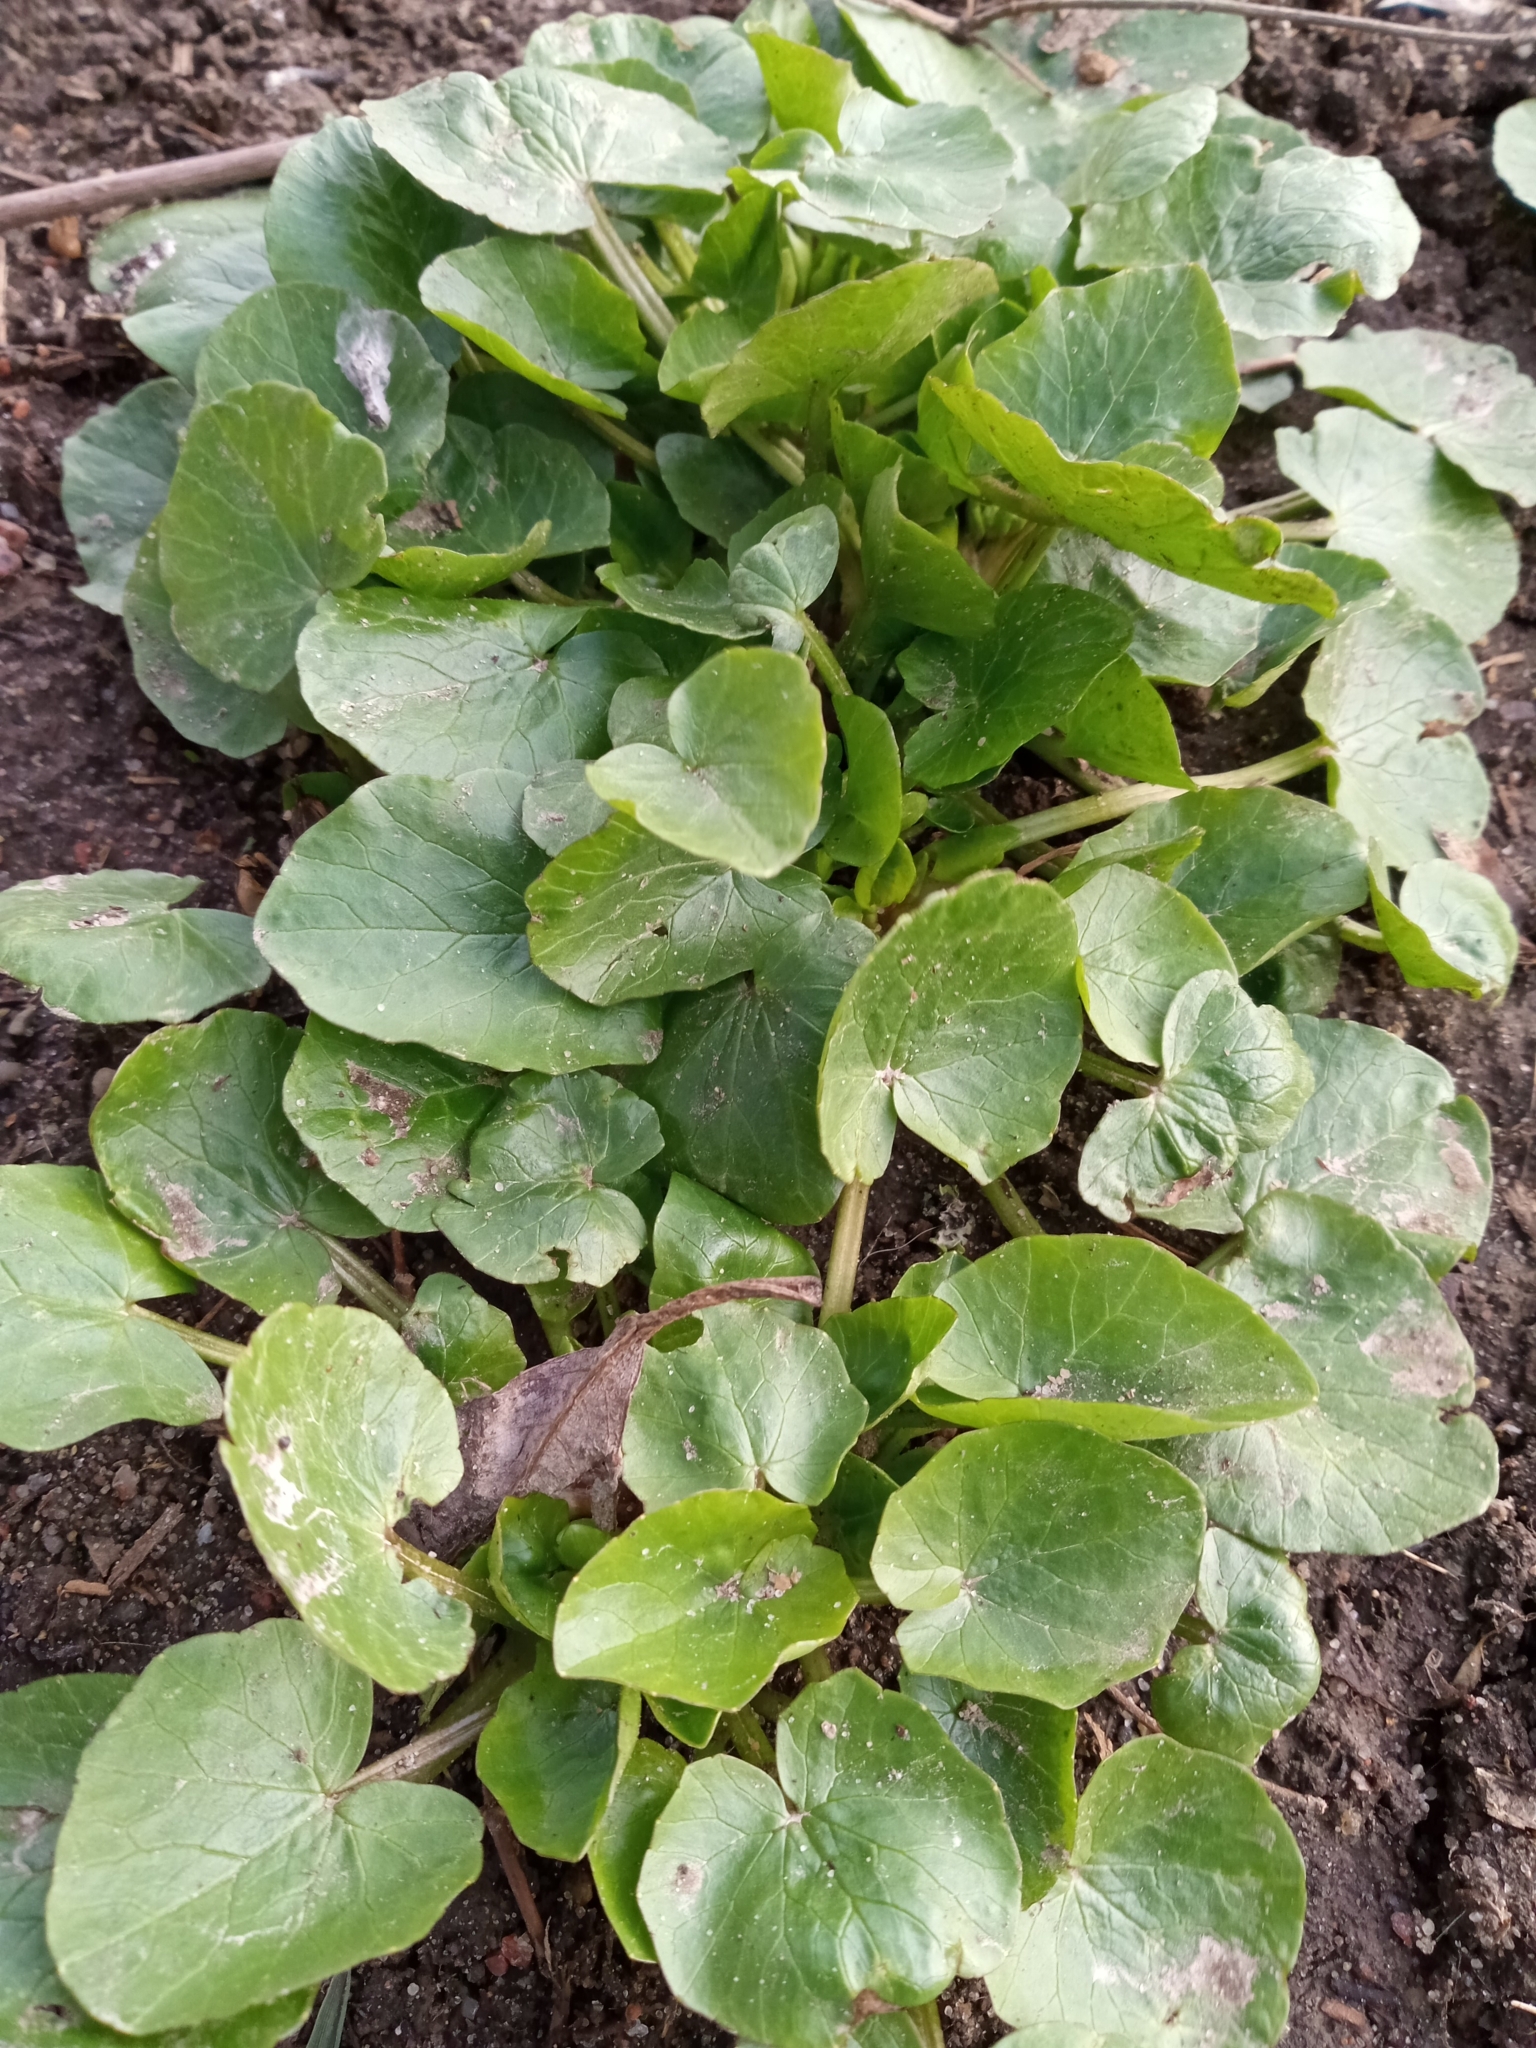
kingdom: Plantae
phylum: Tracheophyta
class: Magnoliopsida
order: Ranunculales
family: Ranunculaceae
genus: Ficaria
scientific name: Ficaria verna
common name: Lesser celandine
